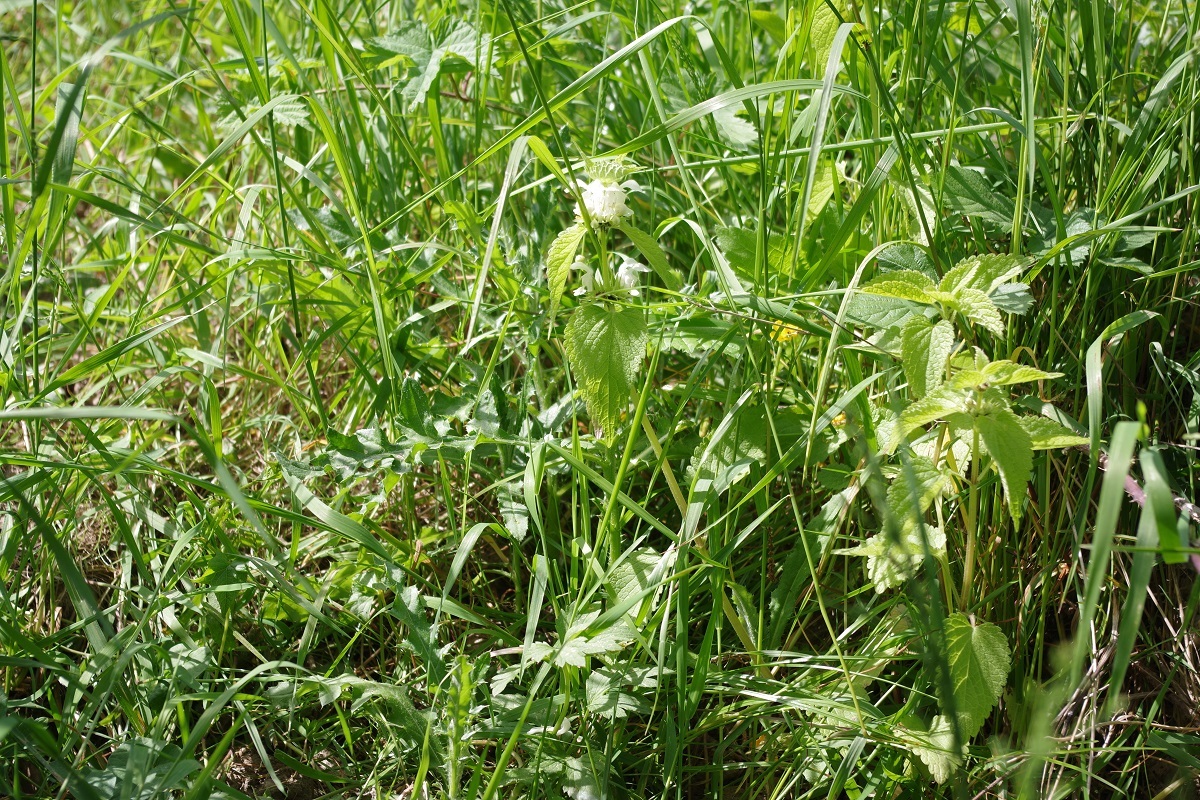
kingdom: Plantae
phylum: Tracheophyta
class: Magnoliopsida
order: Lamiales
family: Lamiaceae
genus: Lamium
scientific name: Lamium album
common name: White dead-nettle
